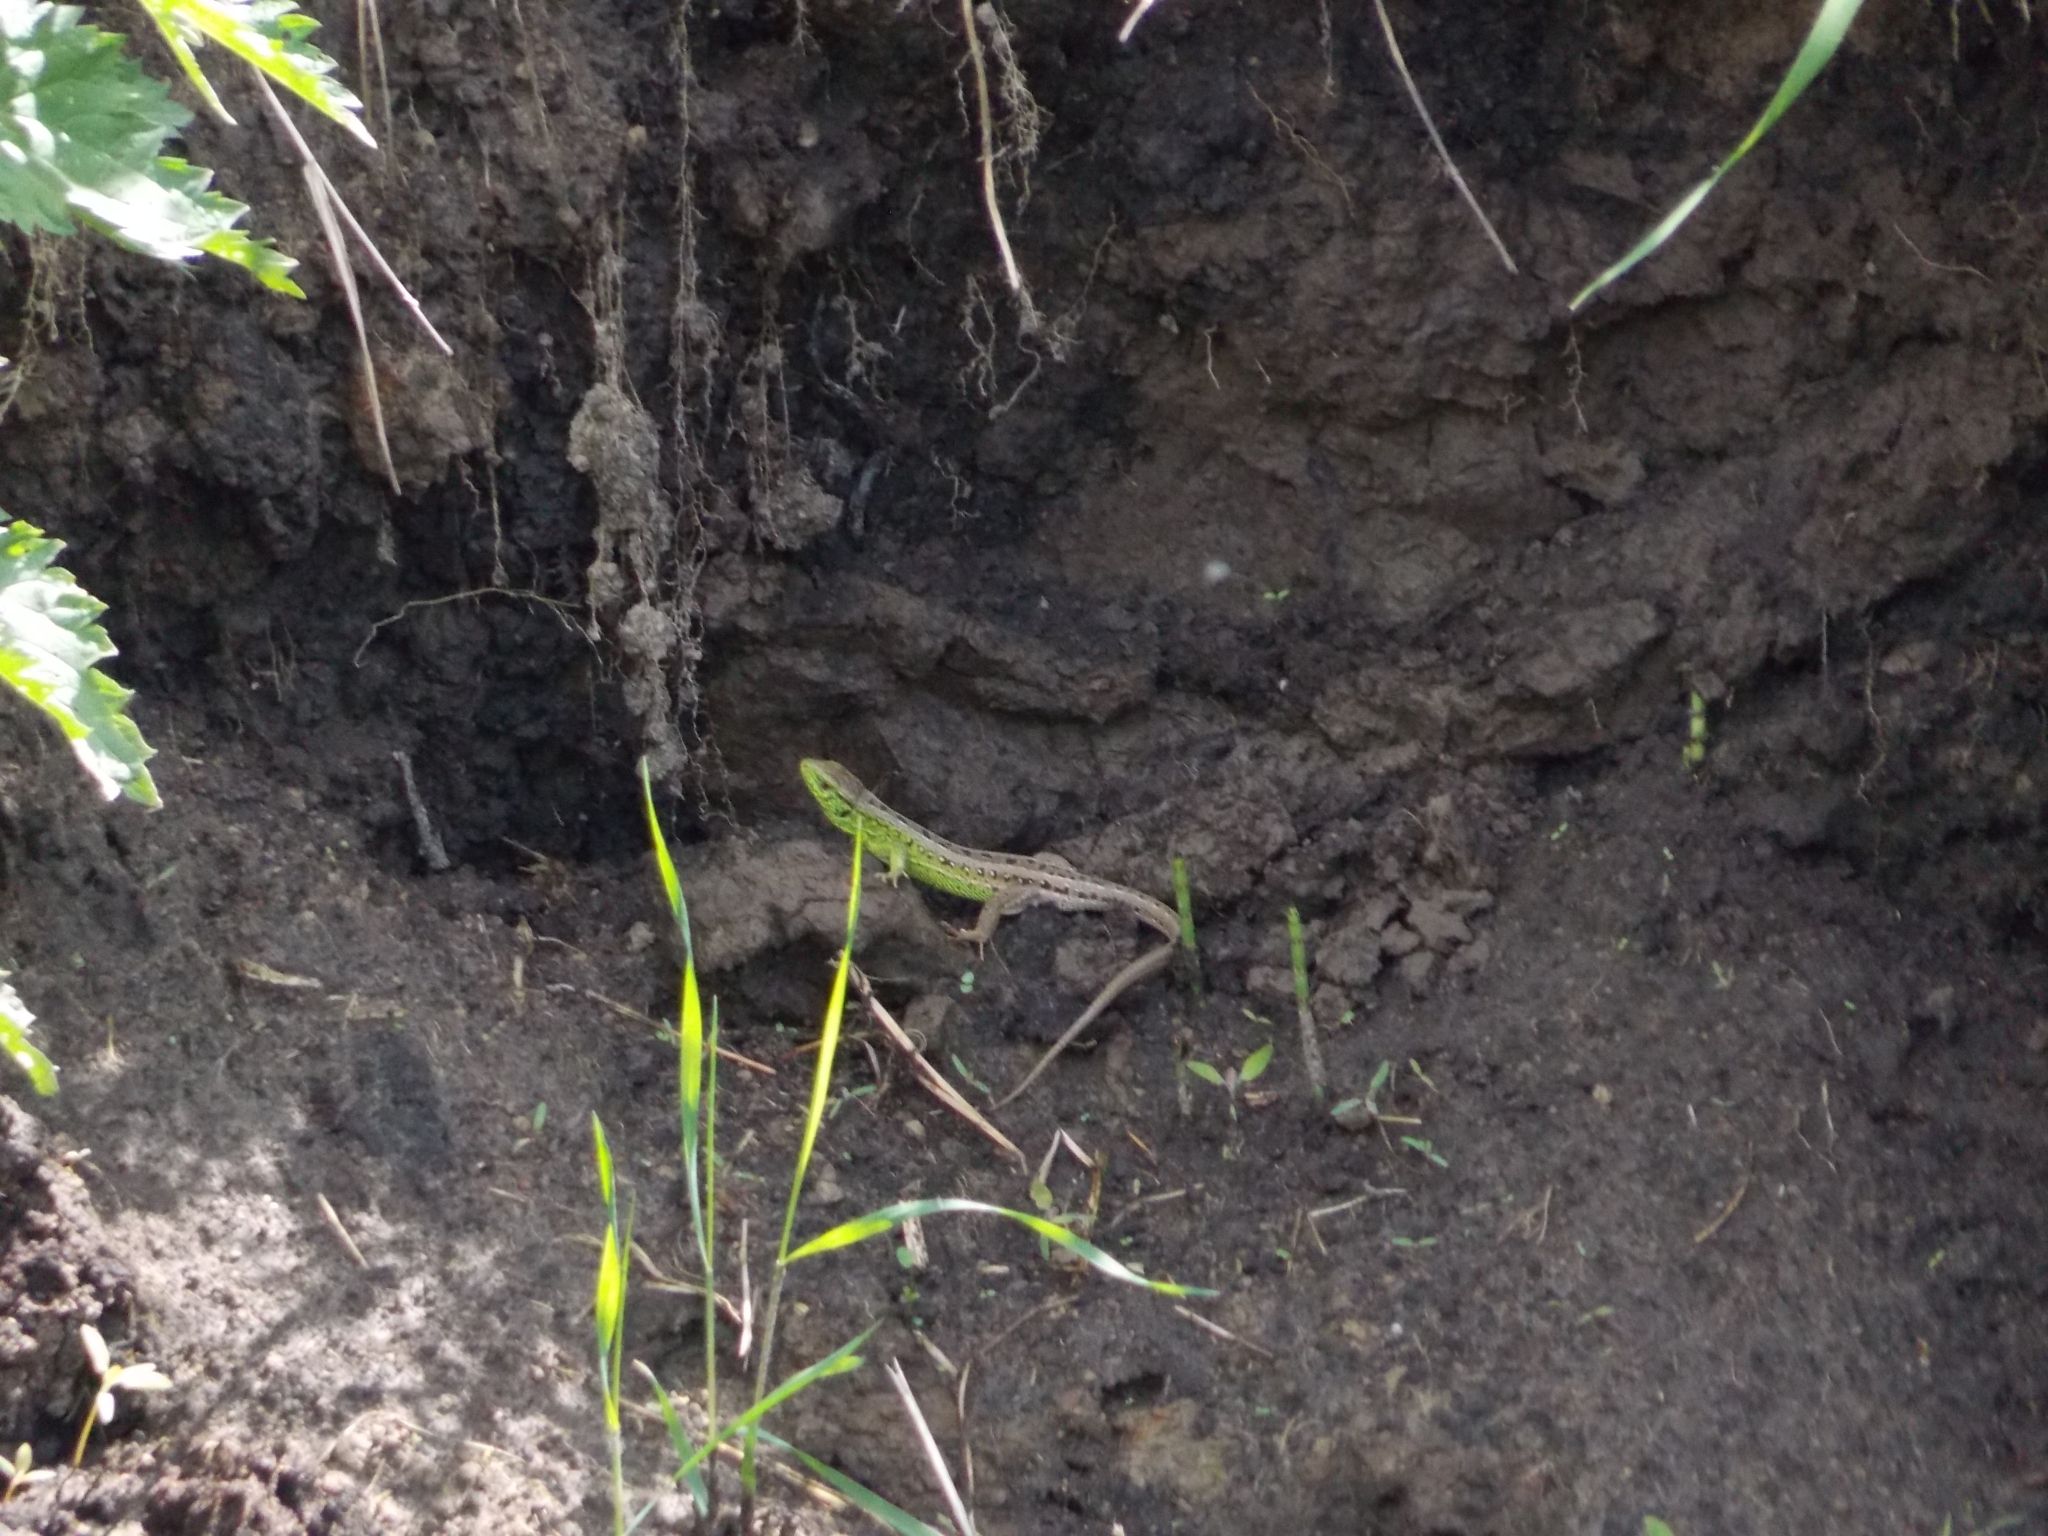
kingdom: Animalia
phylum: Chordata
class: Squamata
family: Lacertidae
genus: Lacerta
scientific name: Lacerta agilis
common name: Sand lizard
